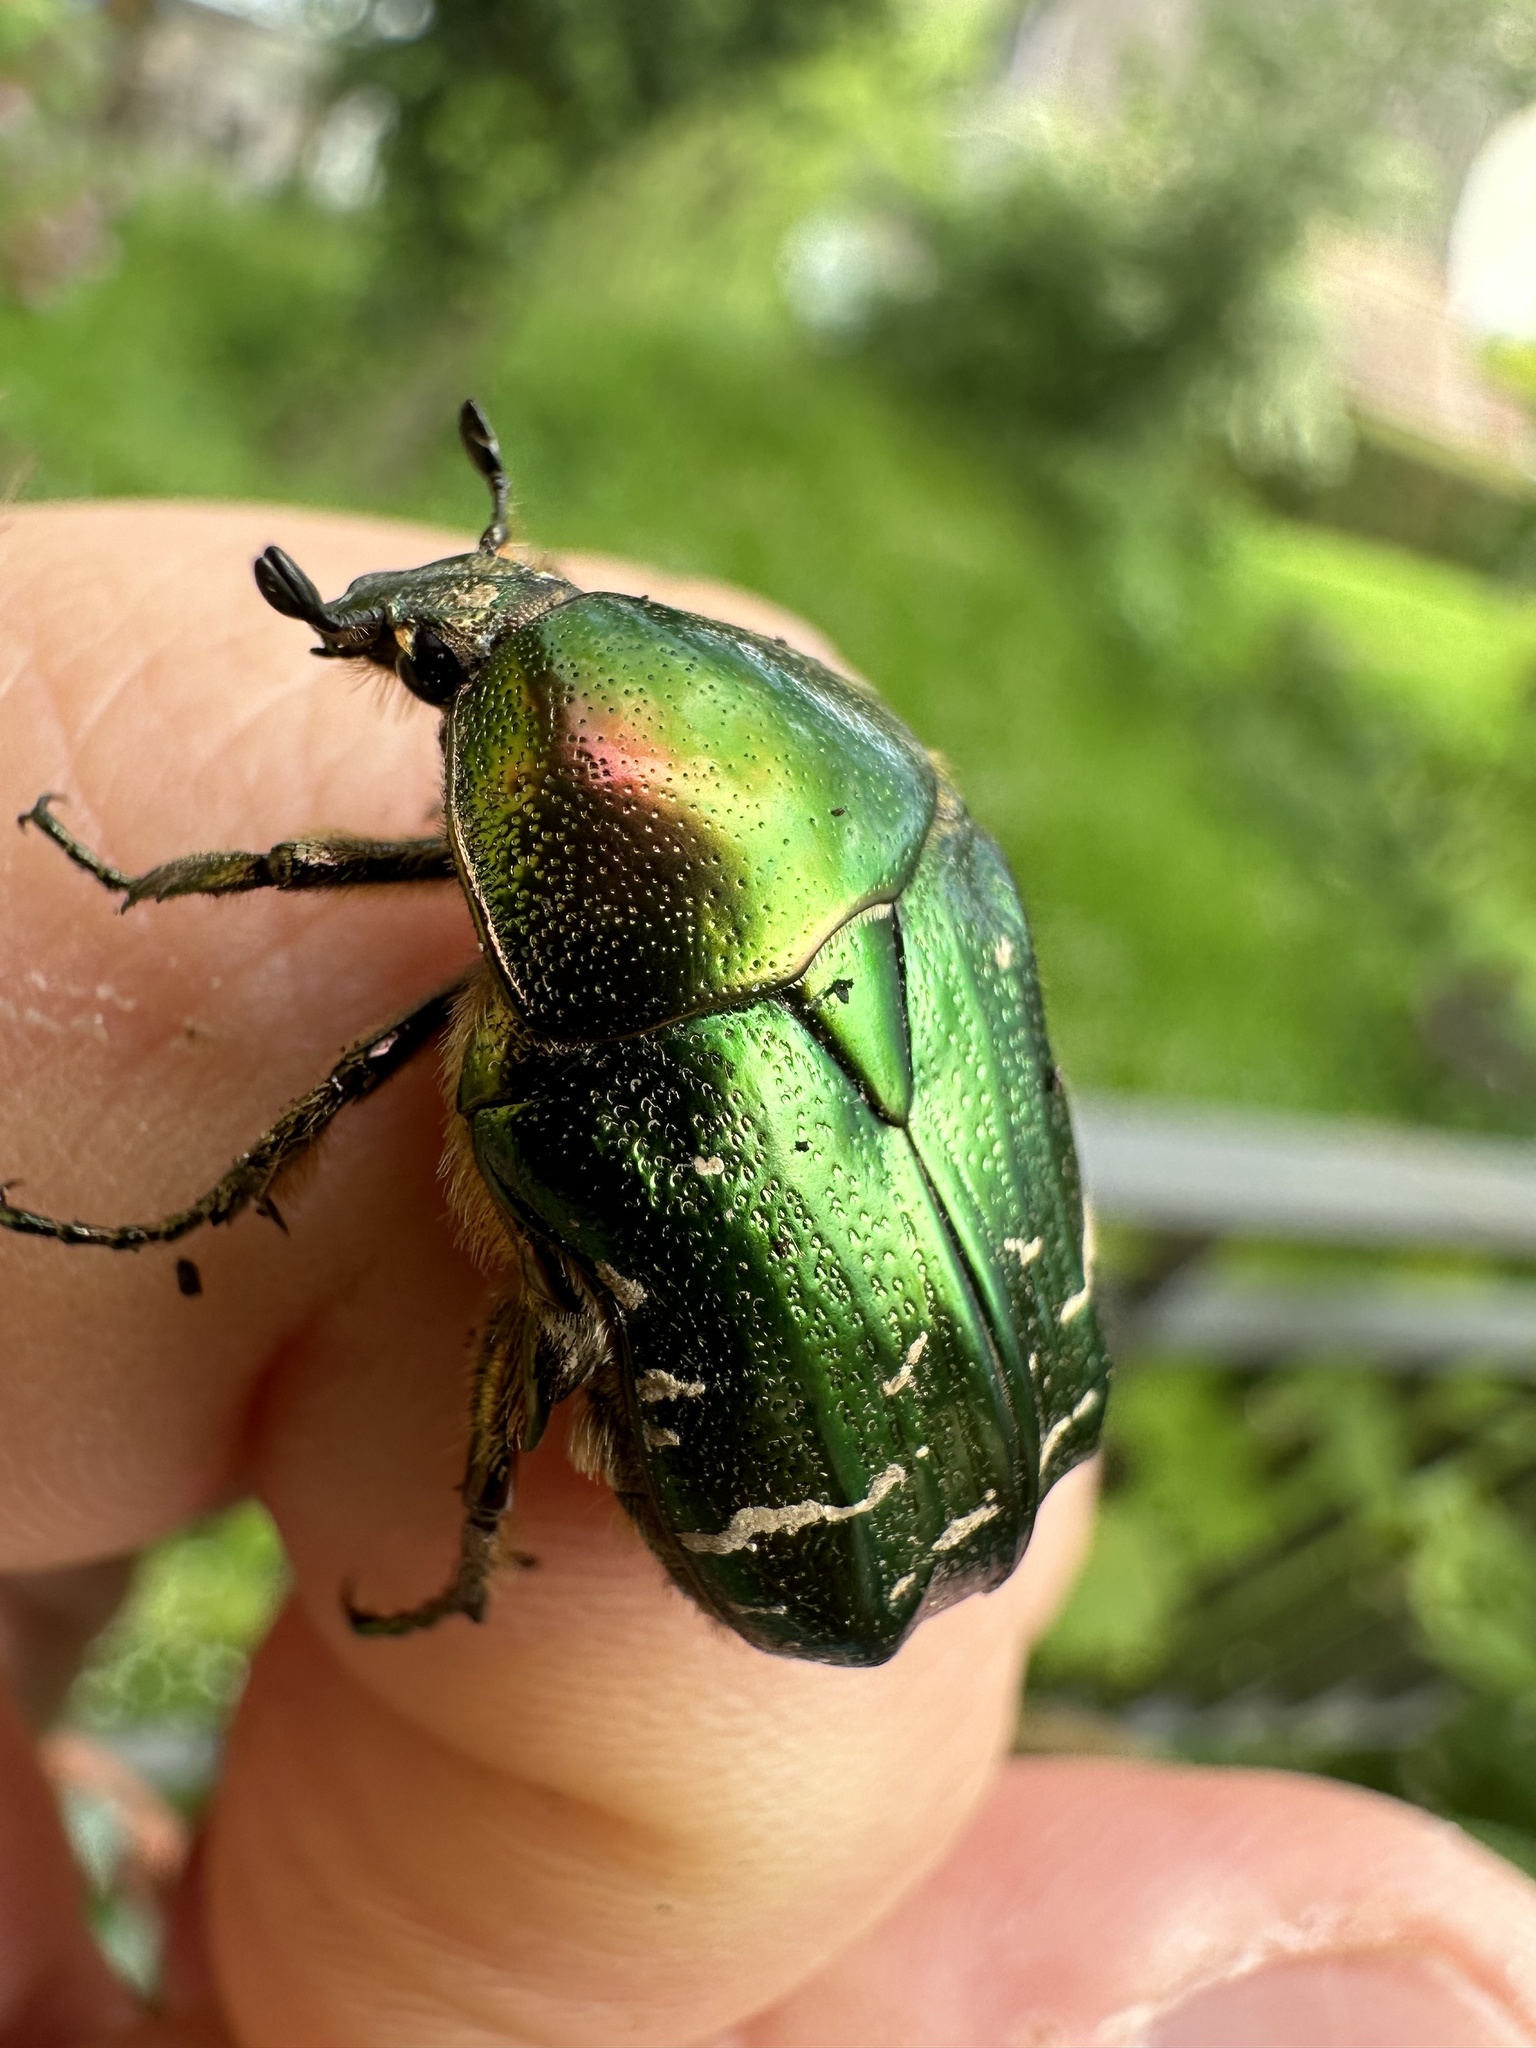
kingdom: Animalia
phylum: Arthropoda
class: Insecta
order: Coleoptera
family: Scarabaeidae
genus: Cetonia
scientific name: Cetonia aurata
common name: Rose chafer
